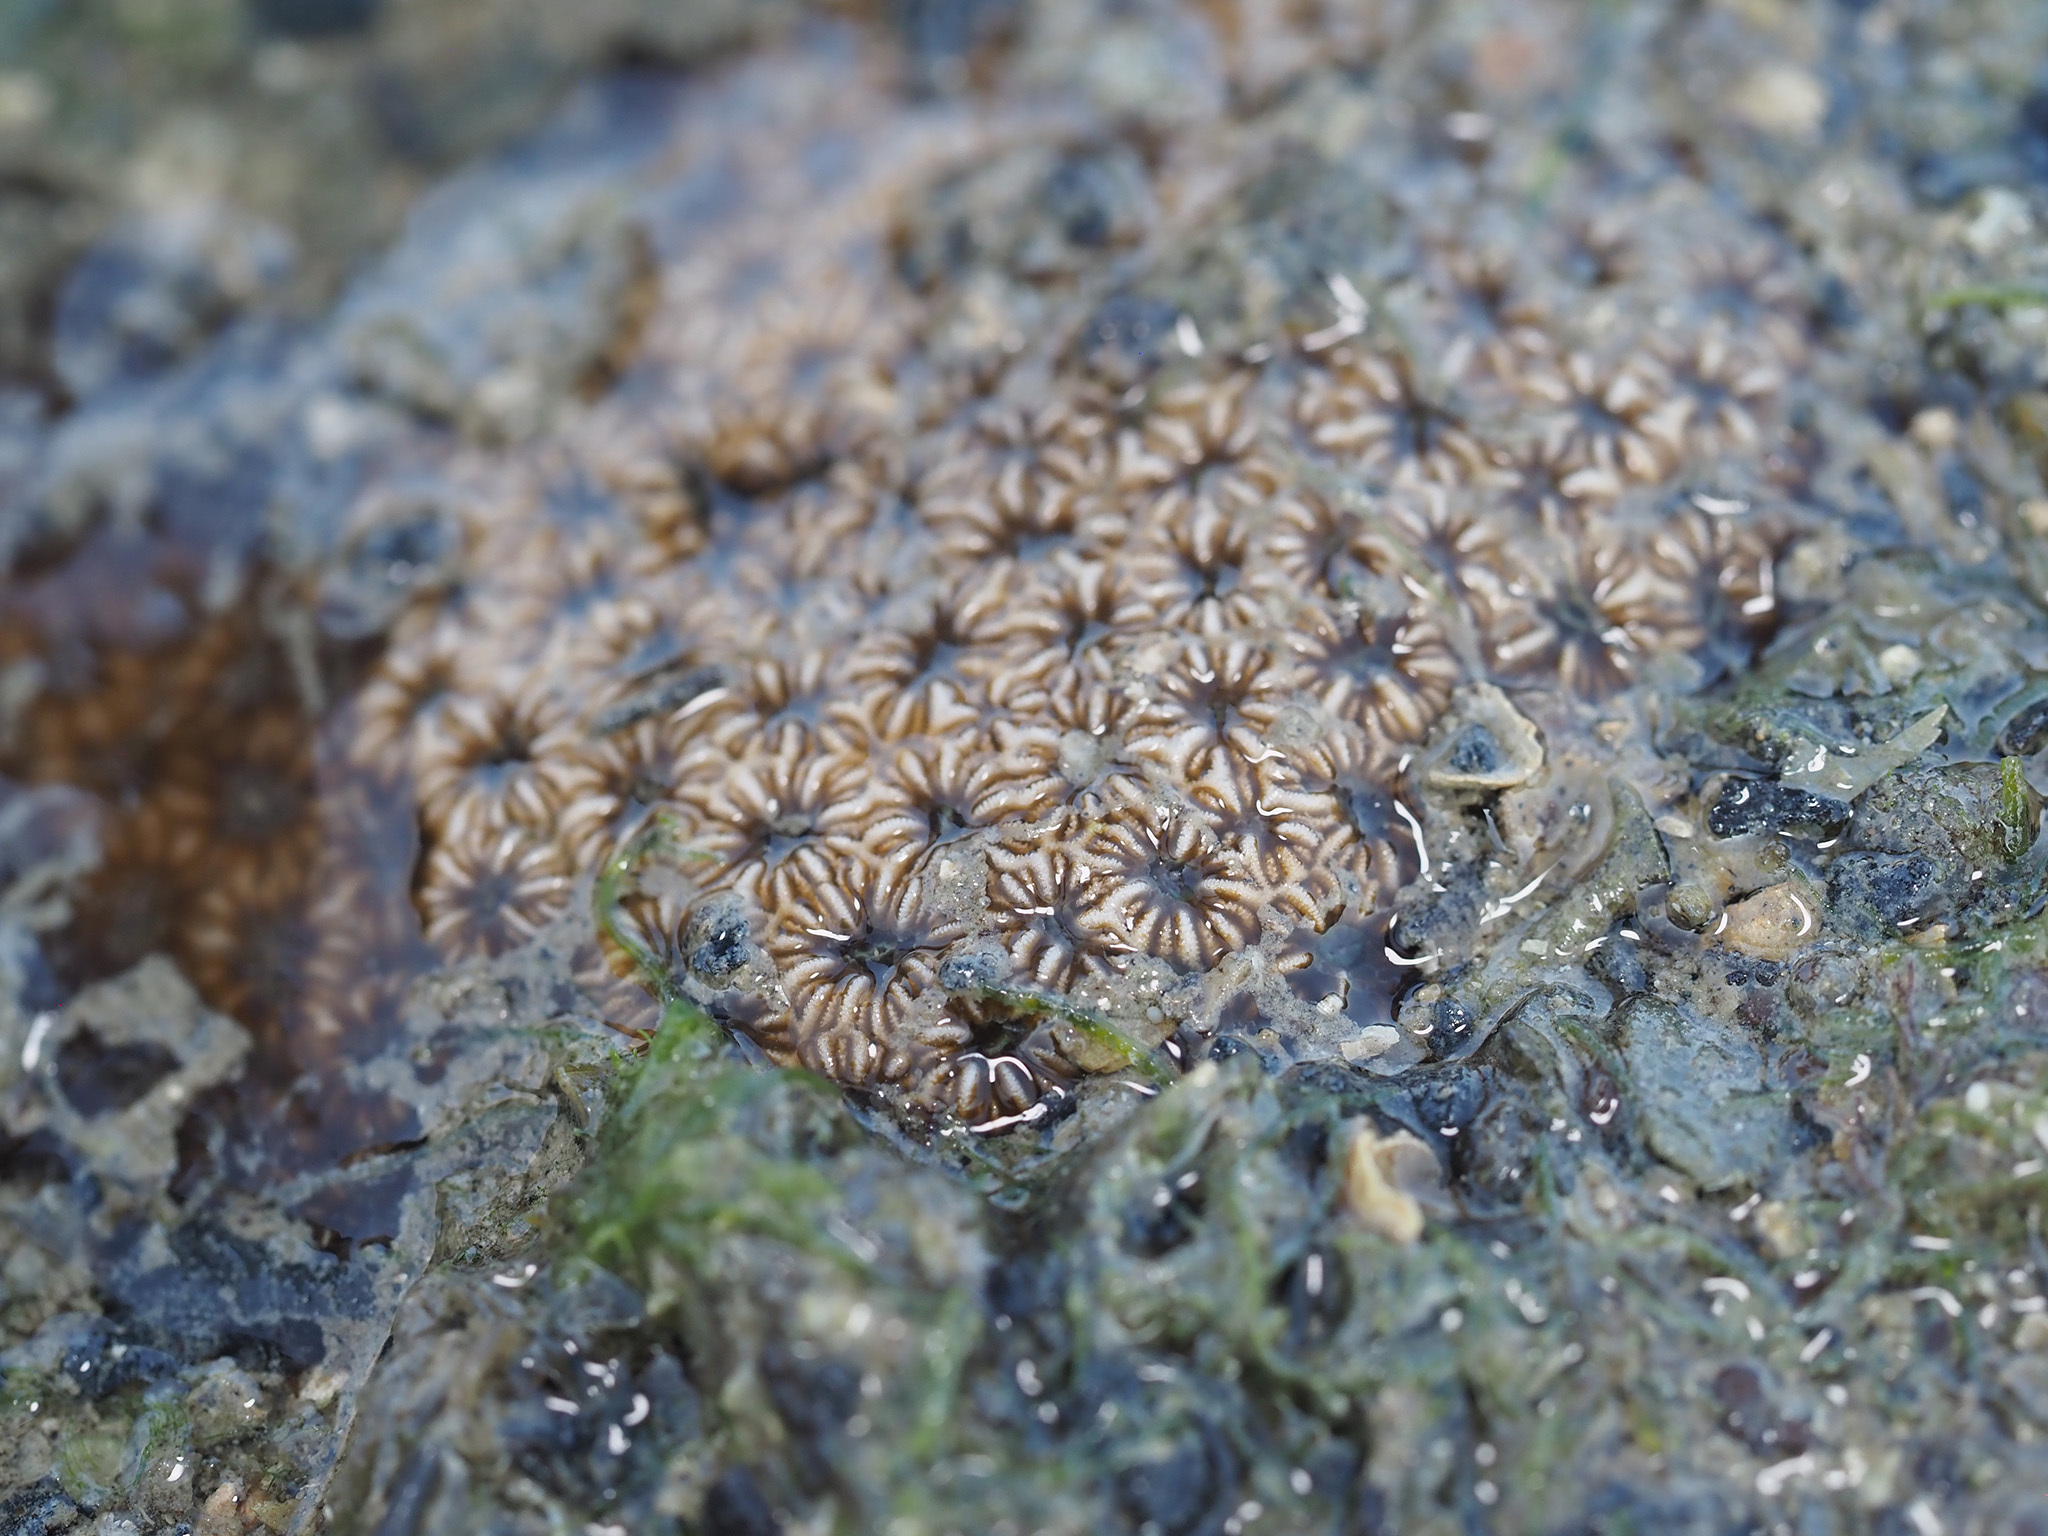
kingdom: Animalia
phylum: Cnidaria
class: Anthozoa
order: Scleractinia
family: Oulastreidae
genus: Oulastrea
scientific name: Oulastrea crispata
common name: Zebra coral
